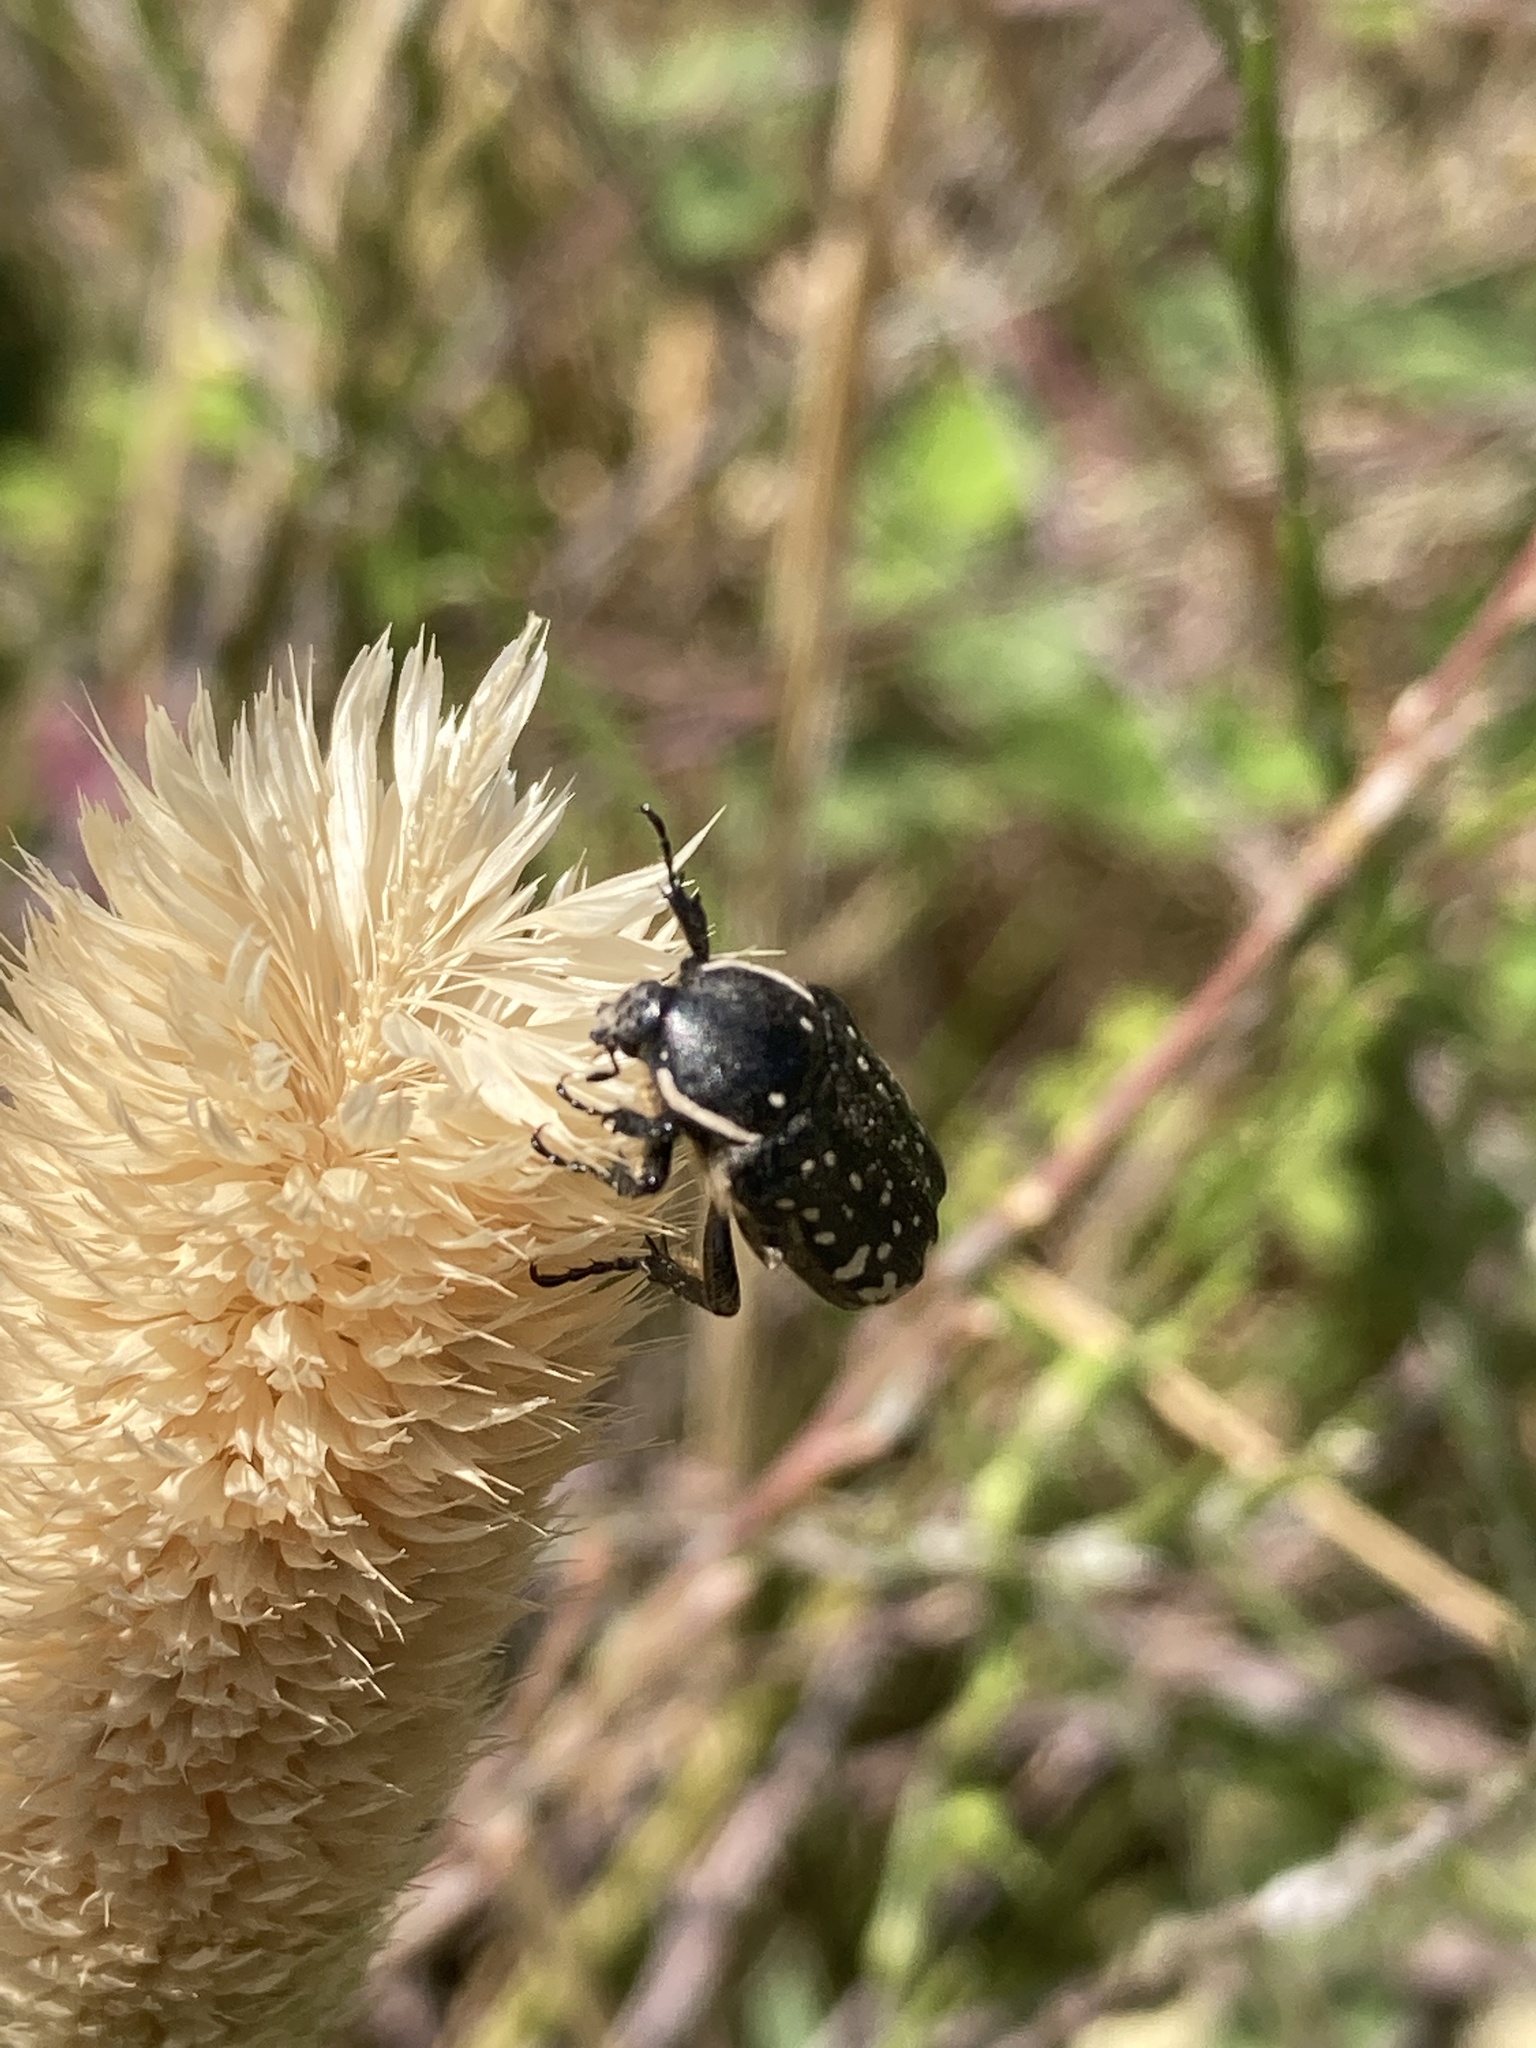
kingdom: Animalia
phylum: Arthropoda
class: Insecta
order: Coleoptera
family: Scarabaeidae
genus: Oxythyrea
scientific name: Oxythyrea cinctella
